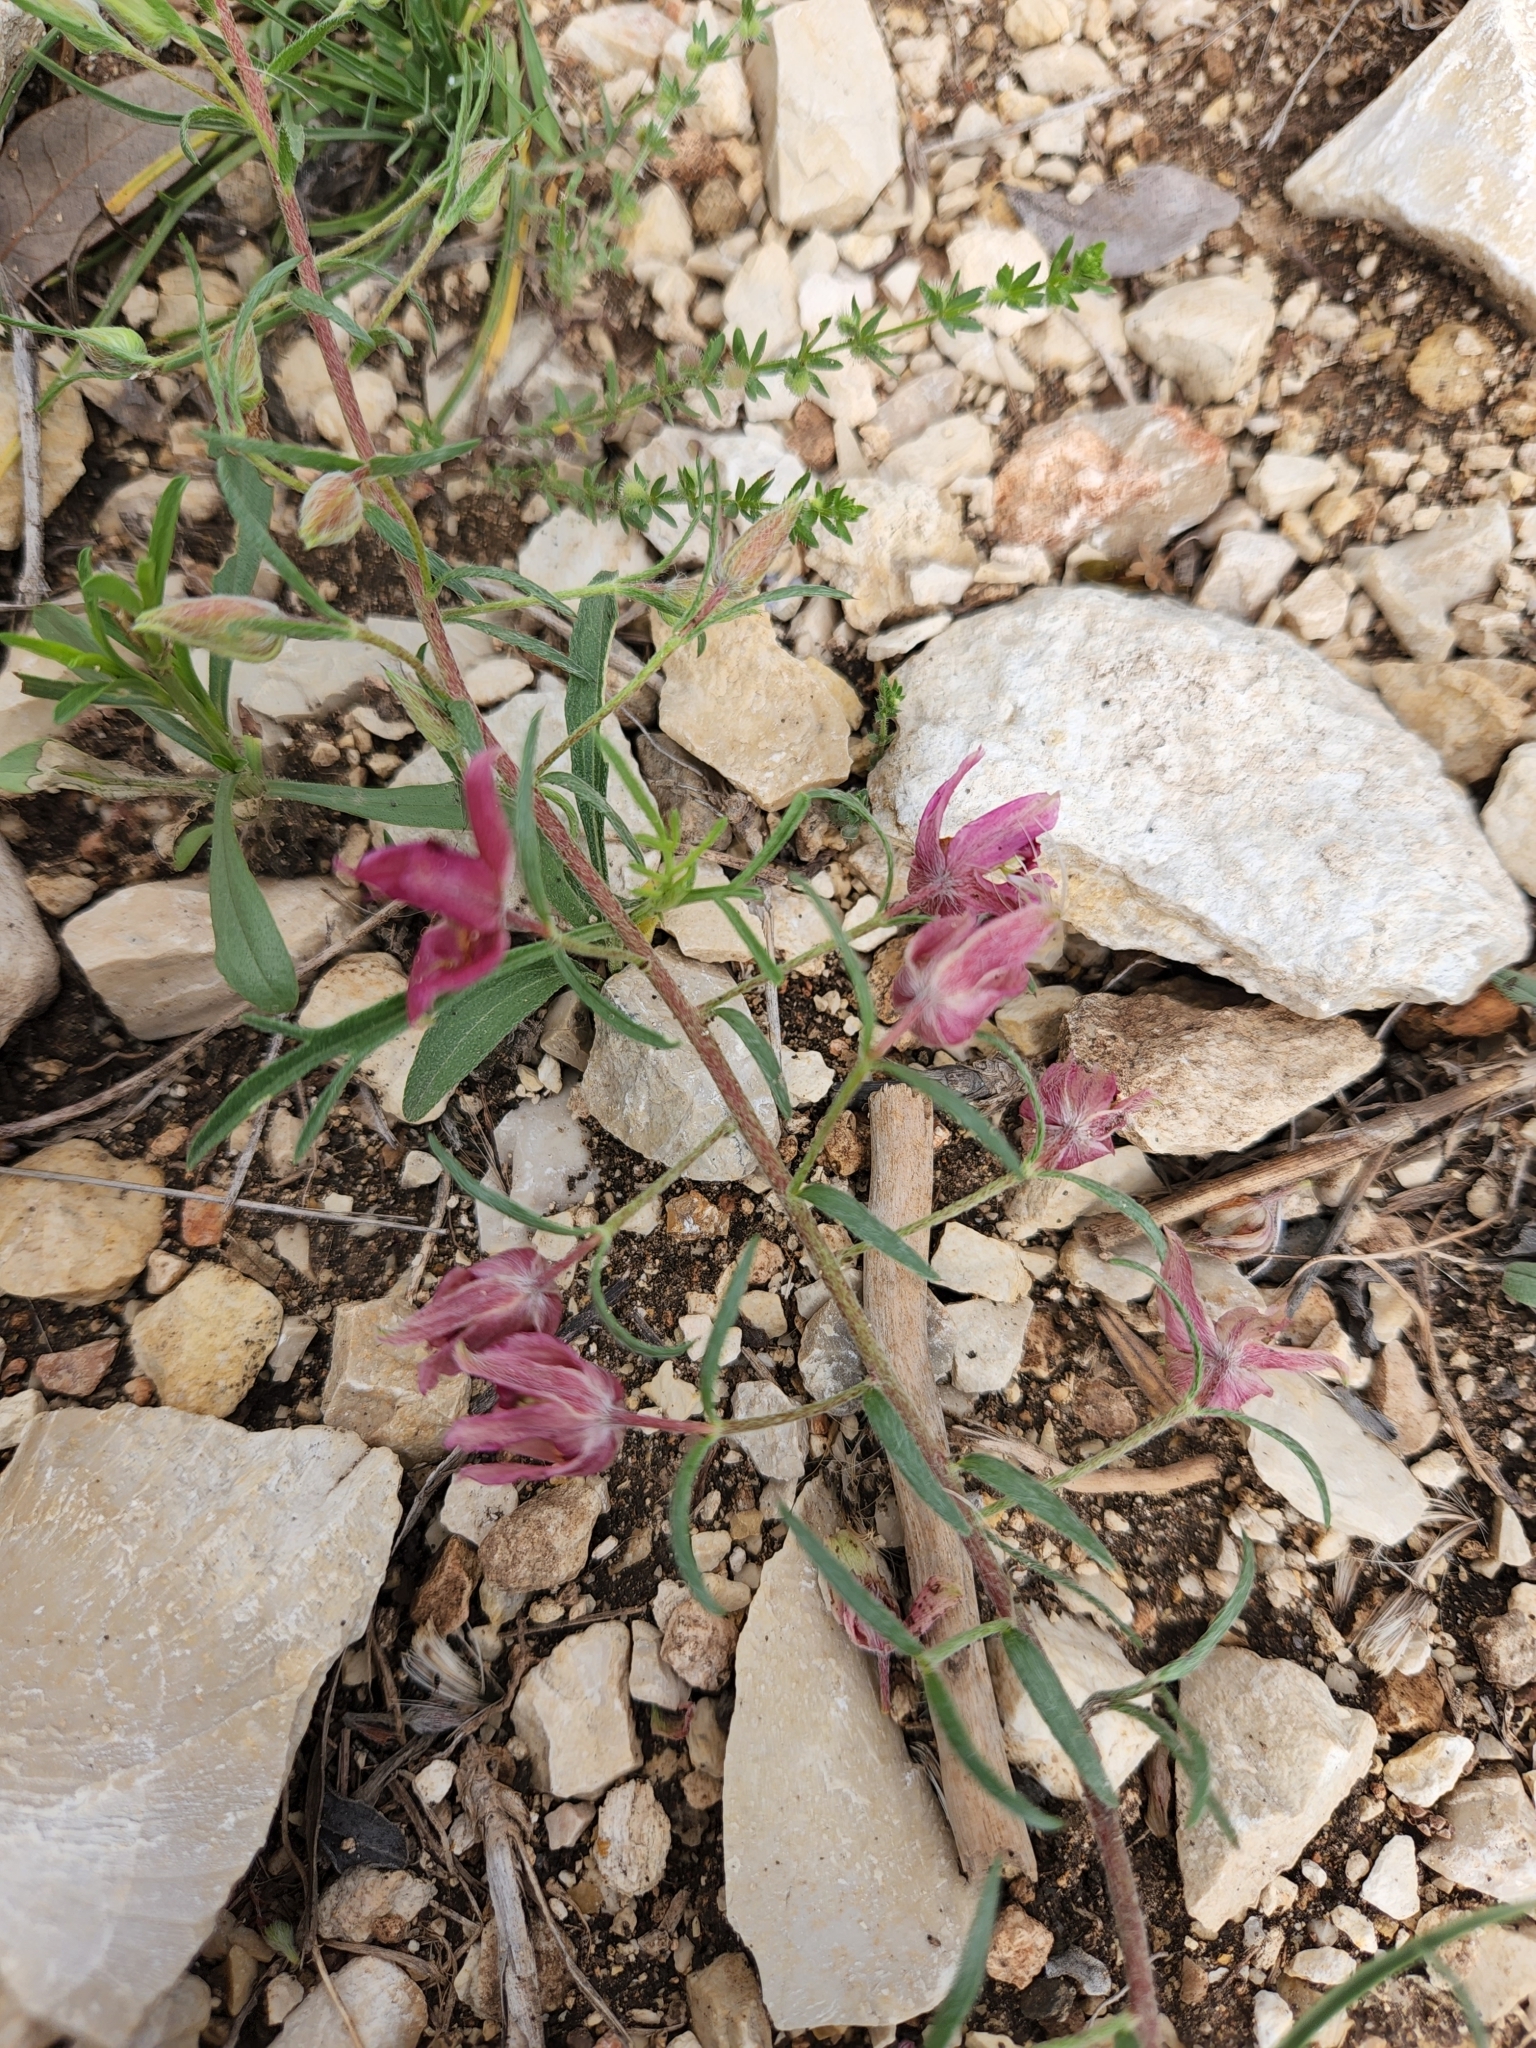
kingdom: Plantae
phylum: Tracheophyta
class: Magnoliopsida
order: Zygophyllales
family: Krameriaceae
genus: Krameria
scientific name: Krameria lanceolata
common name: Ratany
